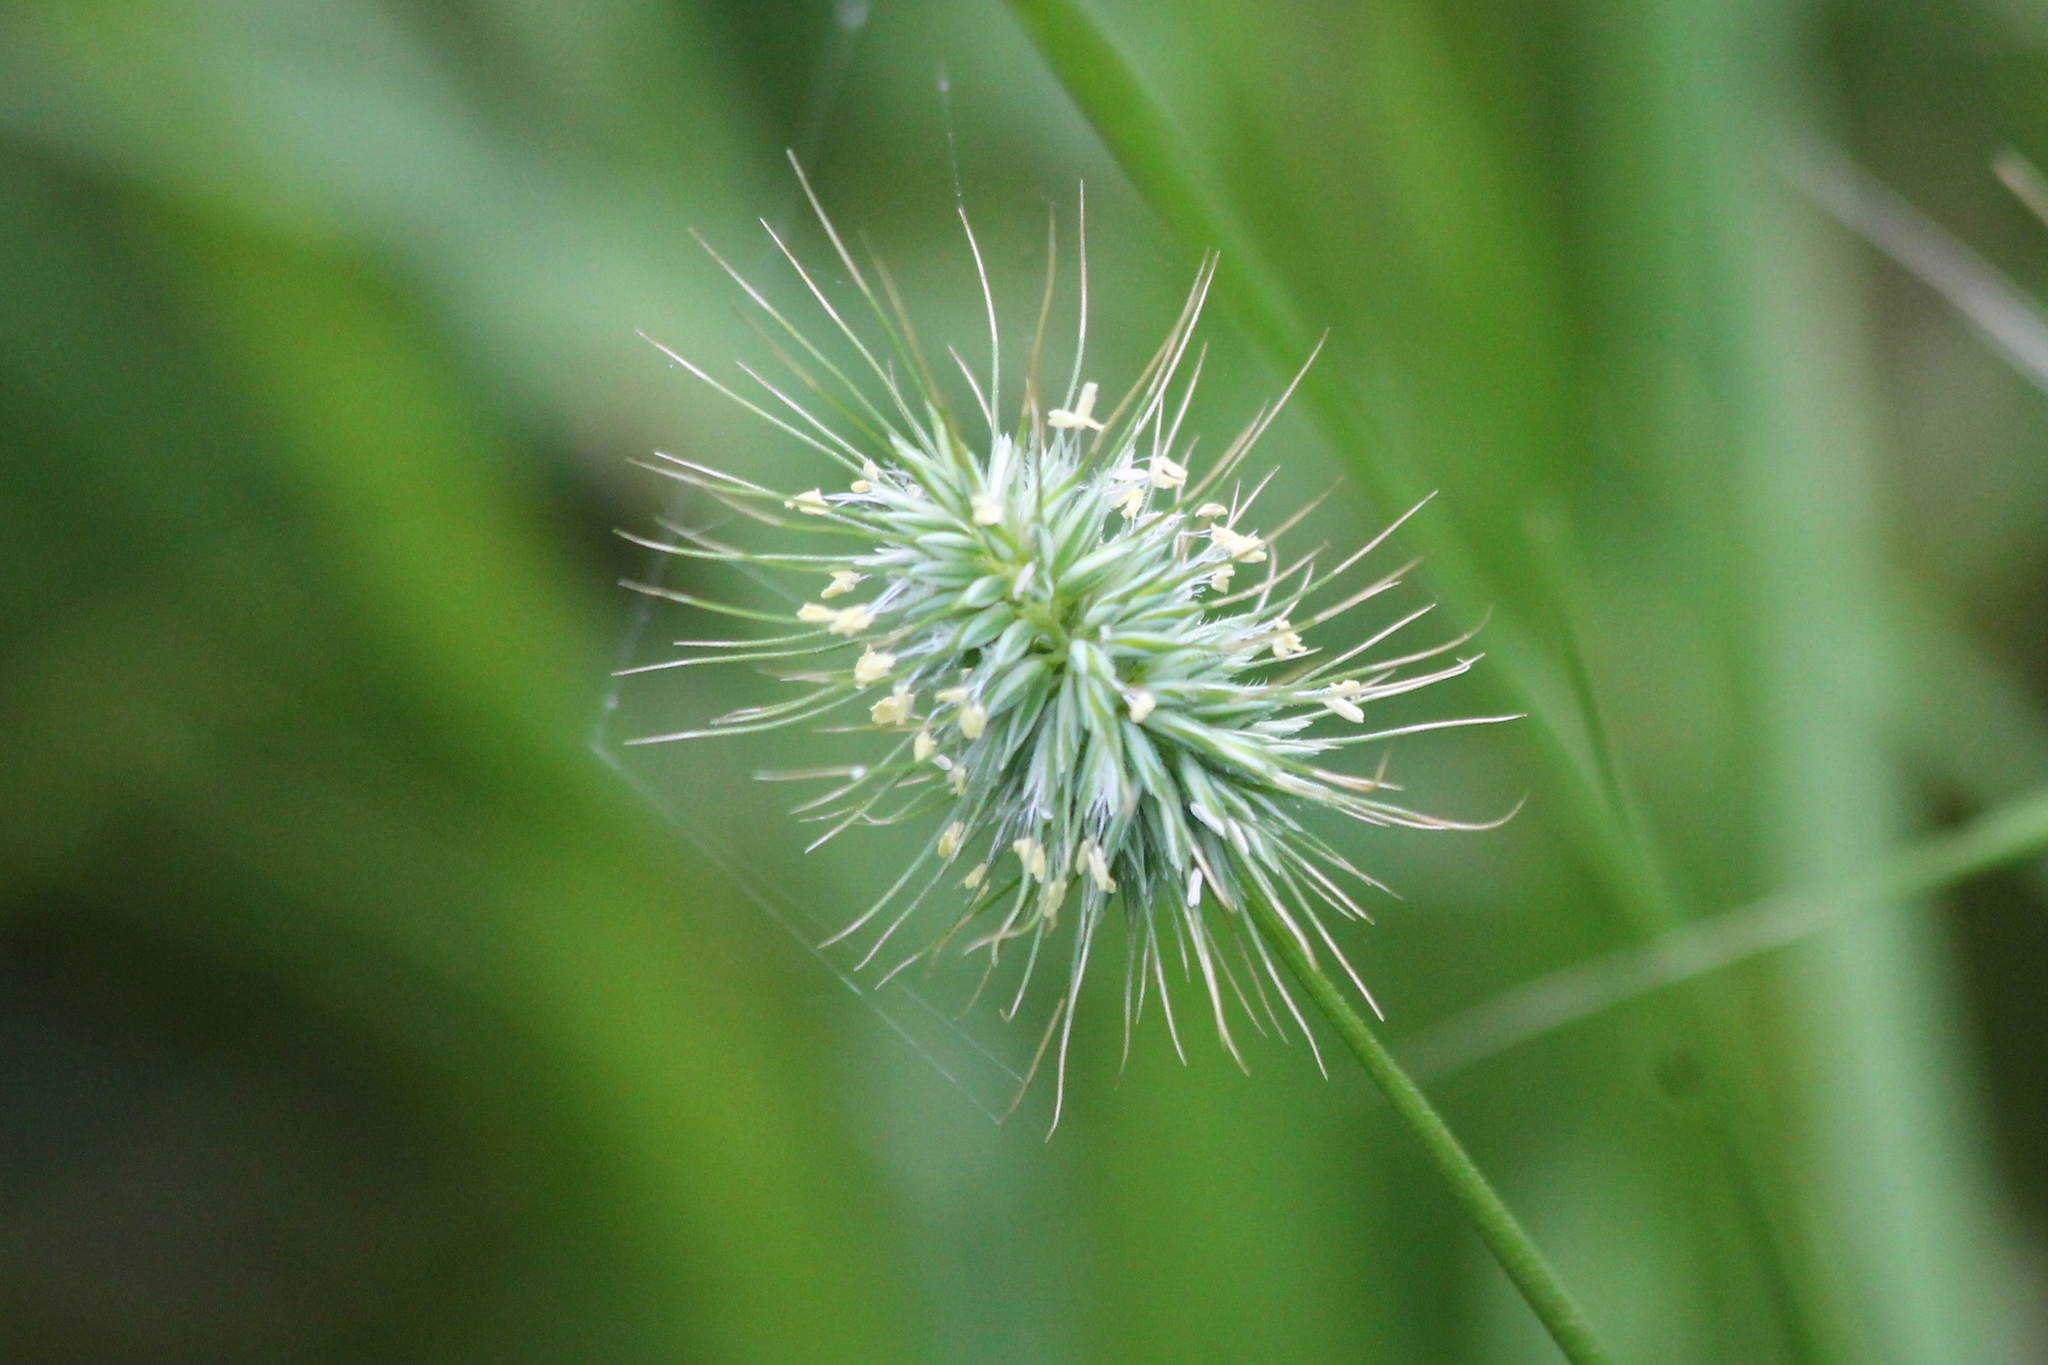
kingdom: Plantae
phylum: Tracheophyta
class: Liliopsida
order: Poales
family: Poaceae
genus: Echinopogon
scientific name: Echinopogon ovatus
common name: Hedgehog-grass
